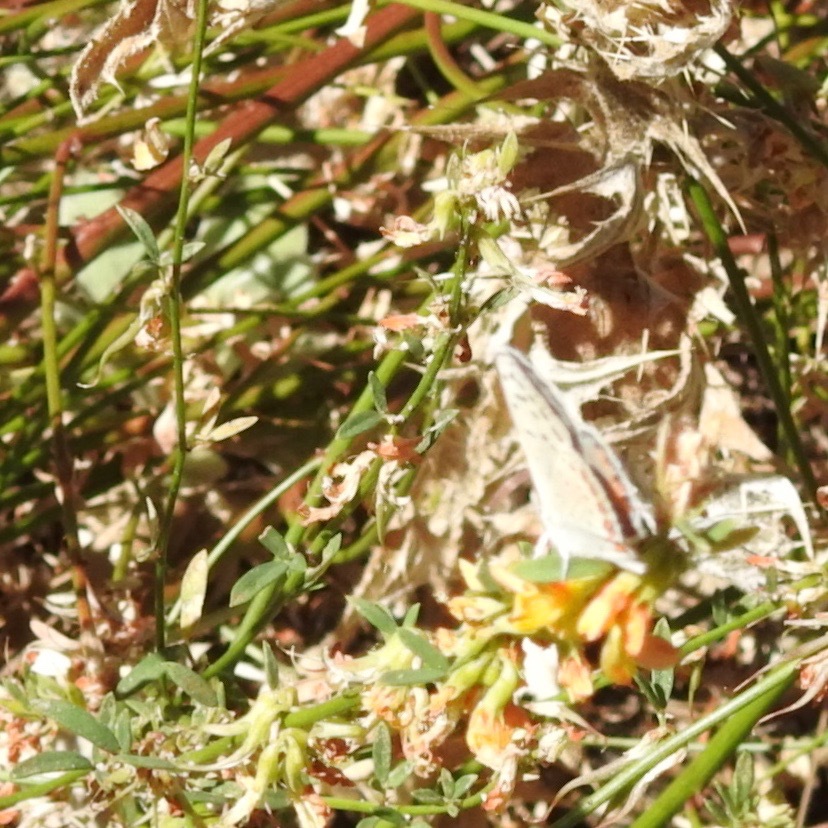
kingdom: Animalia
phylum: Arthropoda
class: Insecta
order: Lepidoptera
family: Lycaenidae
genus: Icaricia
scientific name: Icaricia acmon
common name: Acmon blue
